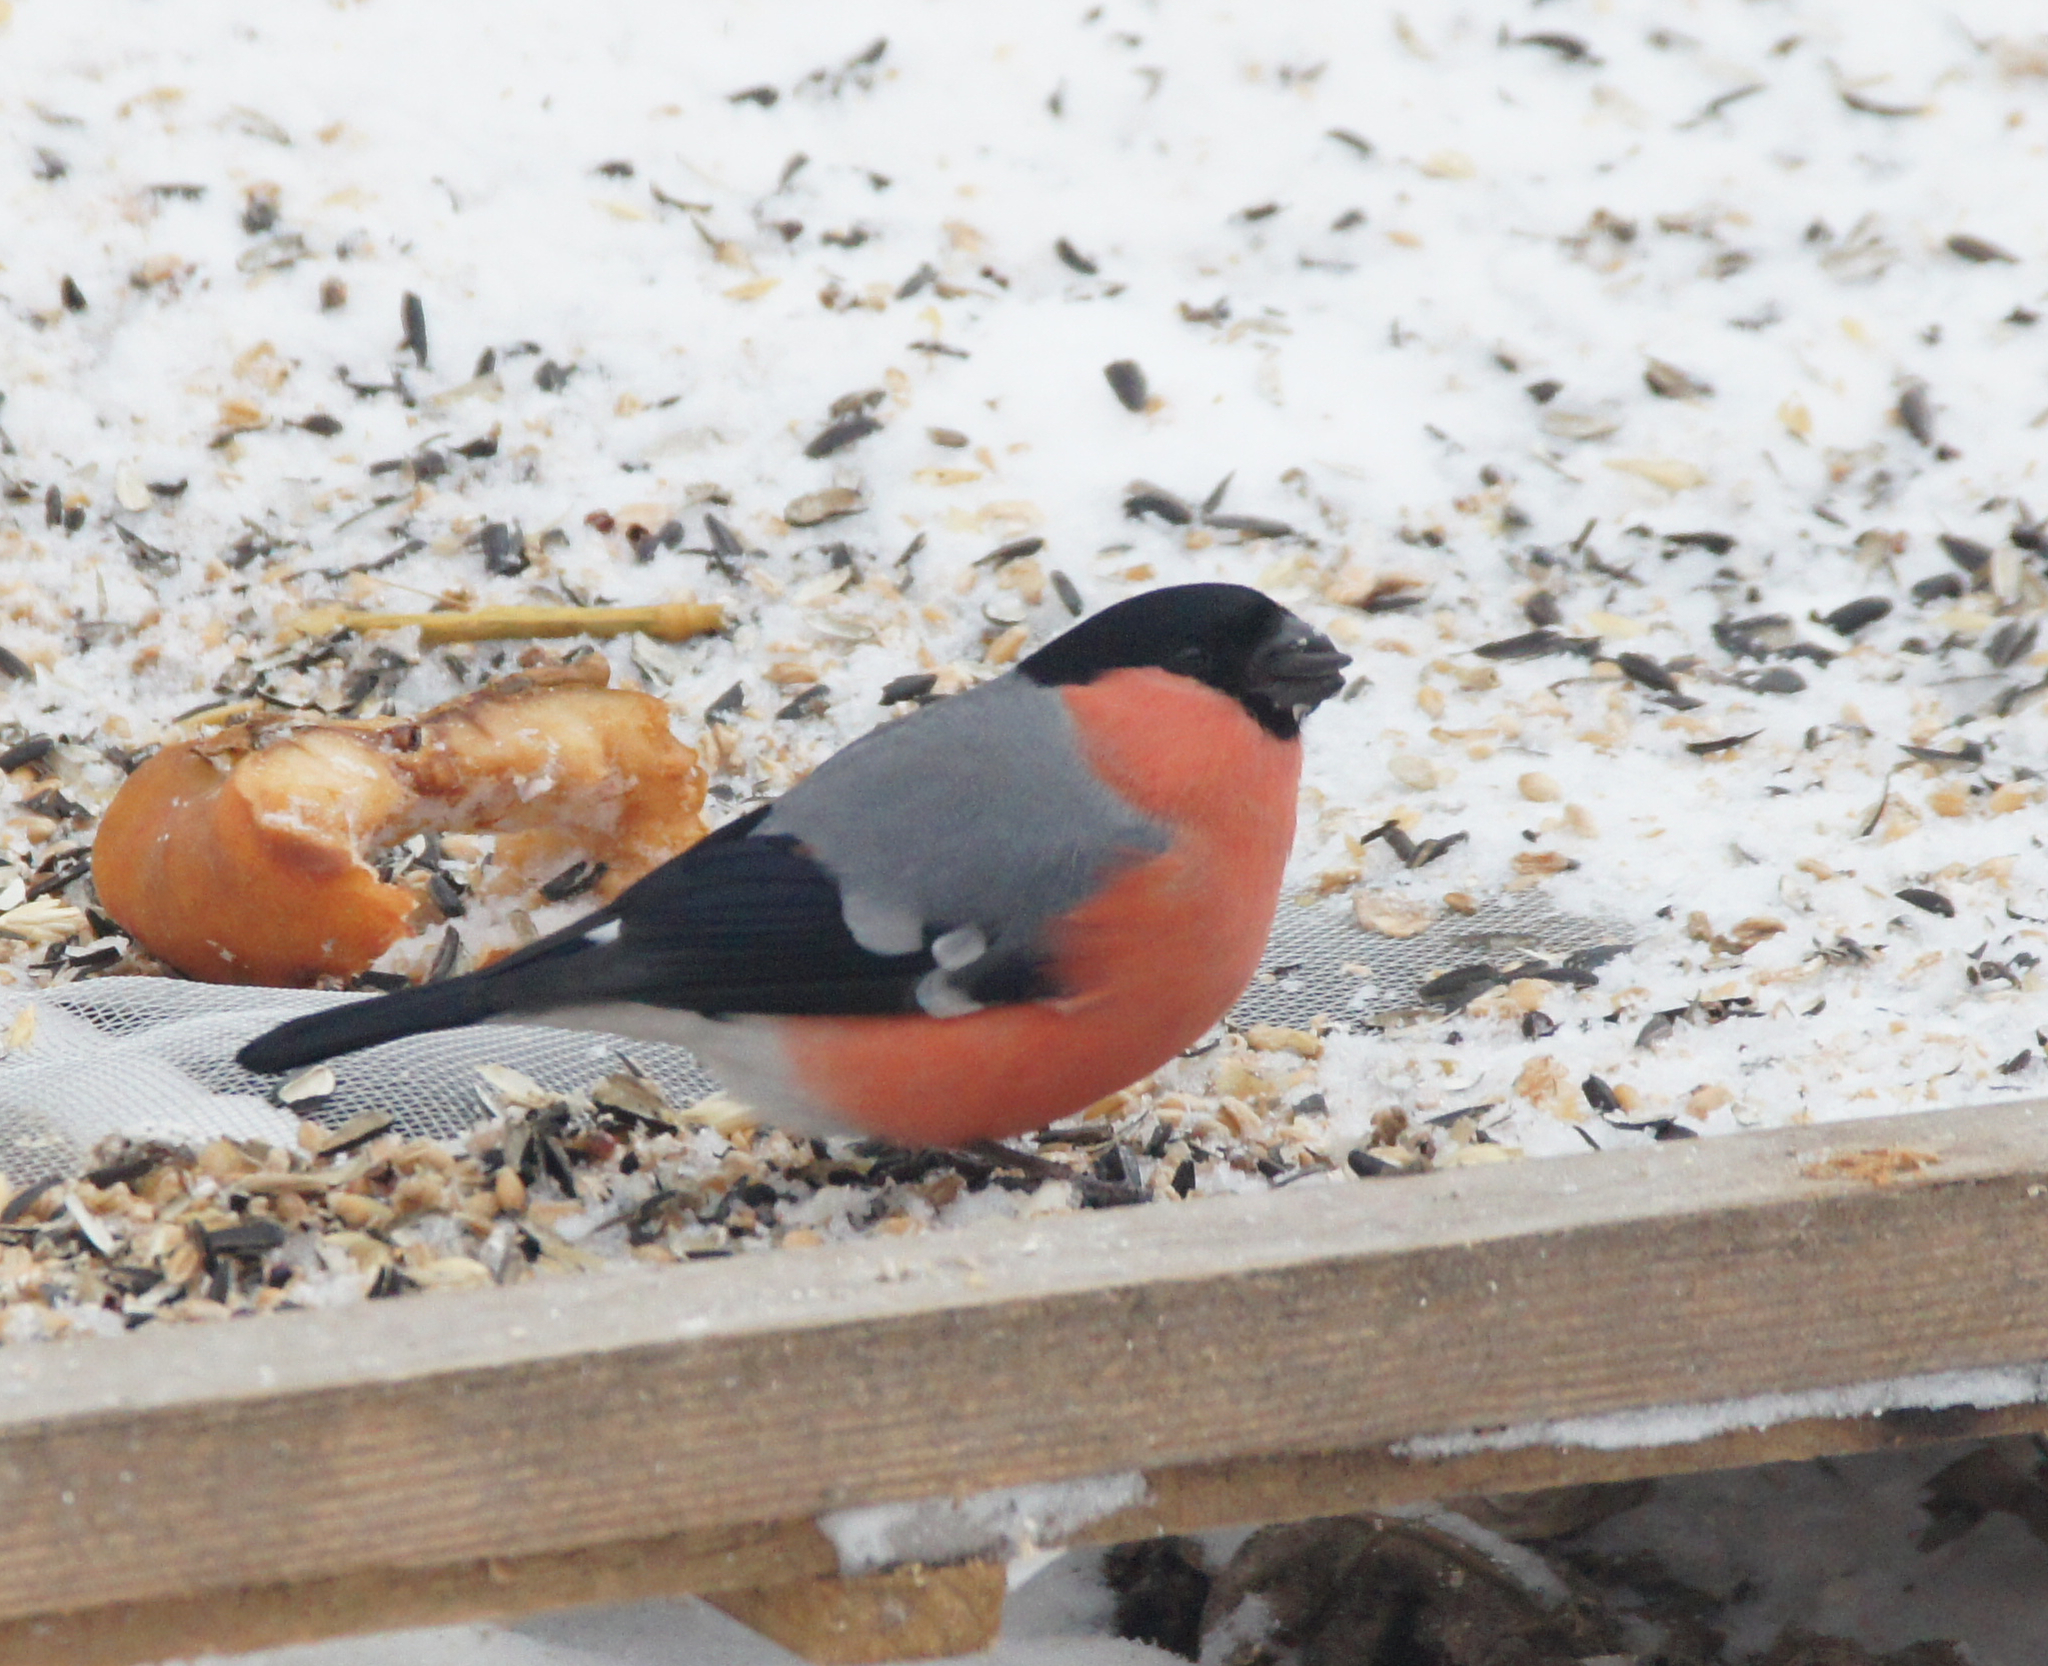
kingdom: Animalia
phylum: Chordata
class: Aves
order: Passeriformes
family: Fringillidae
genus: Pyrrhula
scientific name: Pyrrhula pyrrhula
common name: Eurasian bullfinch
